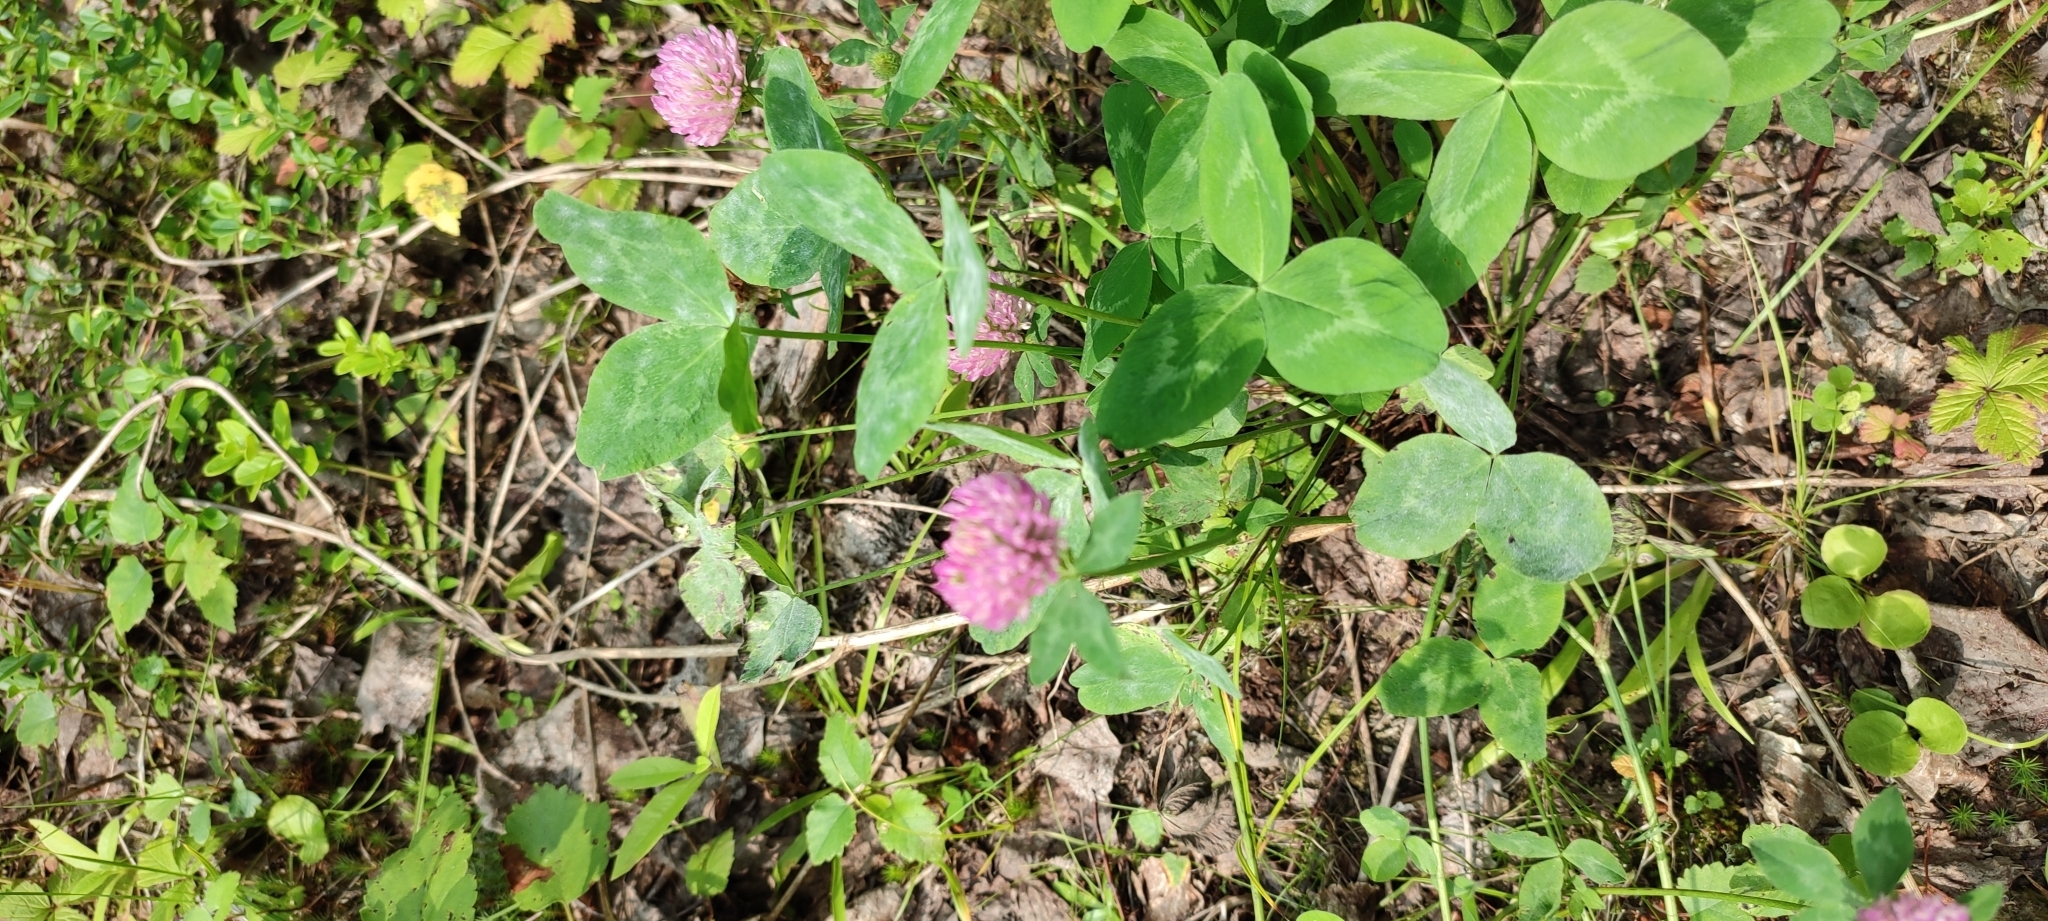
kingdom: Plantae
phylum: Tracheophyta
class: Magnoliopsida
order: Fabales
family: Fabaceae
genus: Trifolium
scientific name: Trifolium pratense
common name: Red clover
